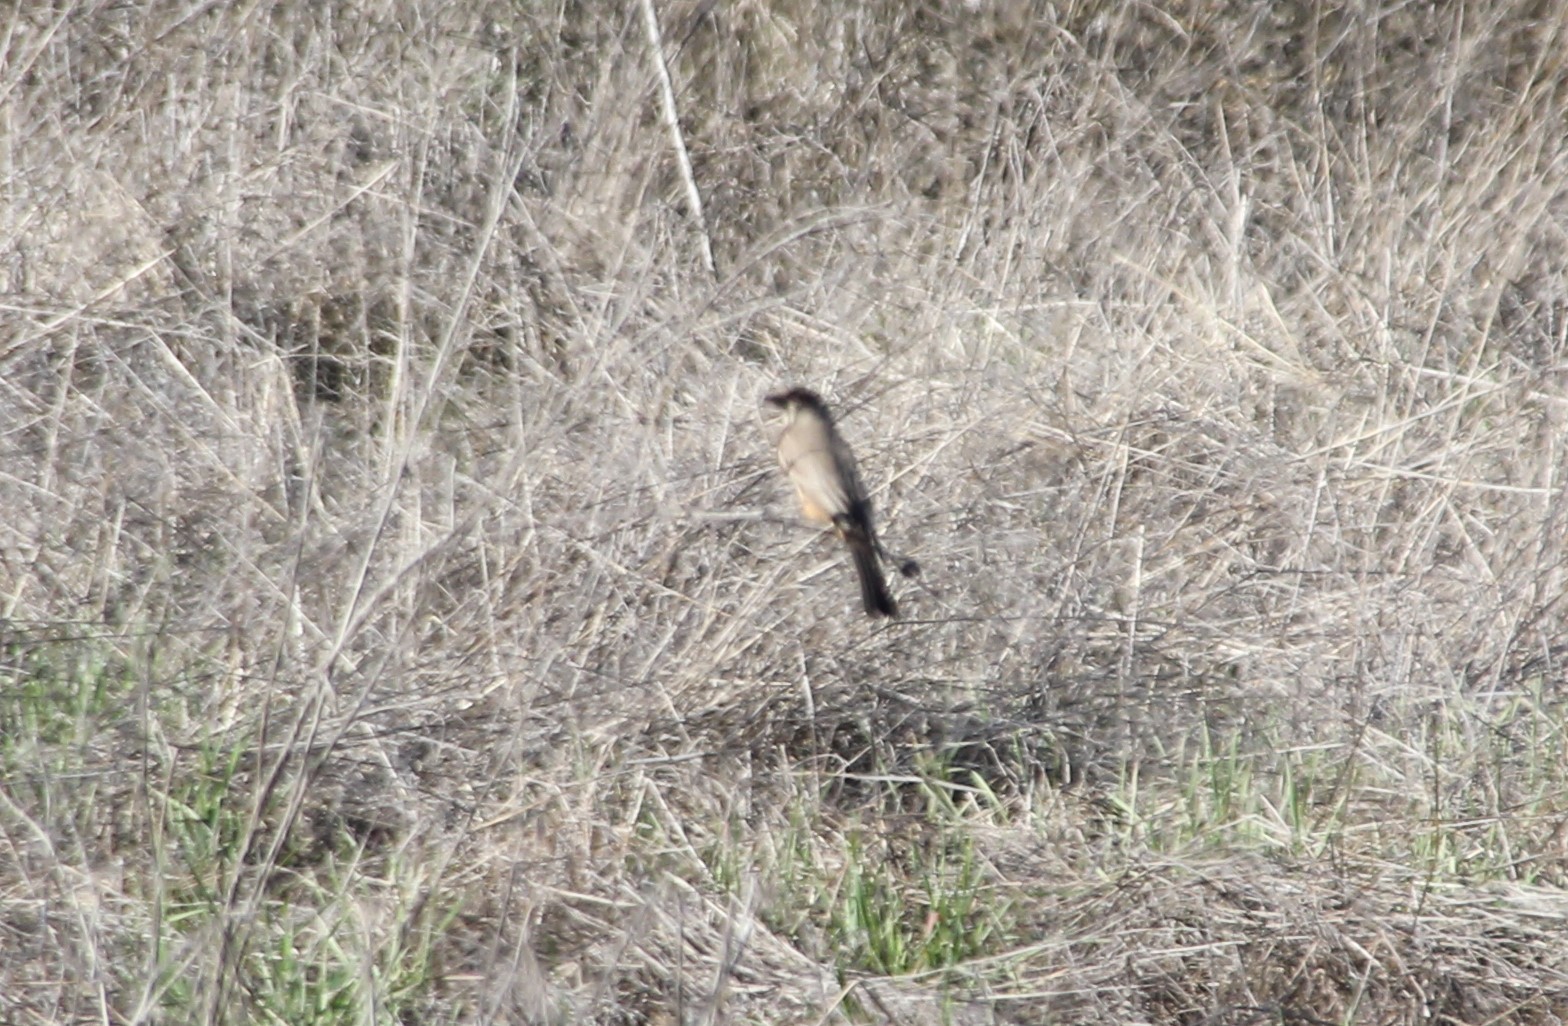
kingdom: Animalia
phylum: Chordata
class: Aves
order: Passeriformes
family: Tyrannidae
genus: Sayornis
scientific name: Sayornis saya
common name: Say's phoebe
